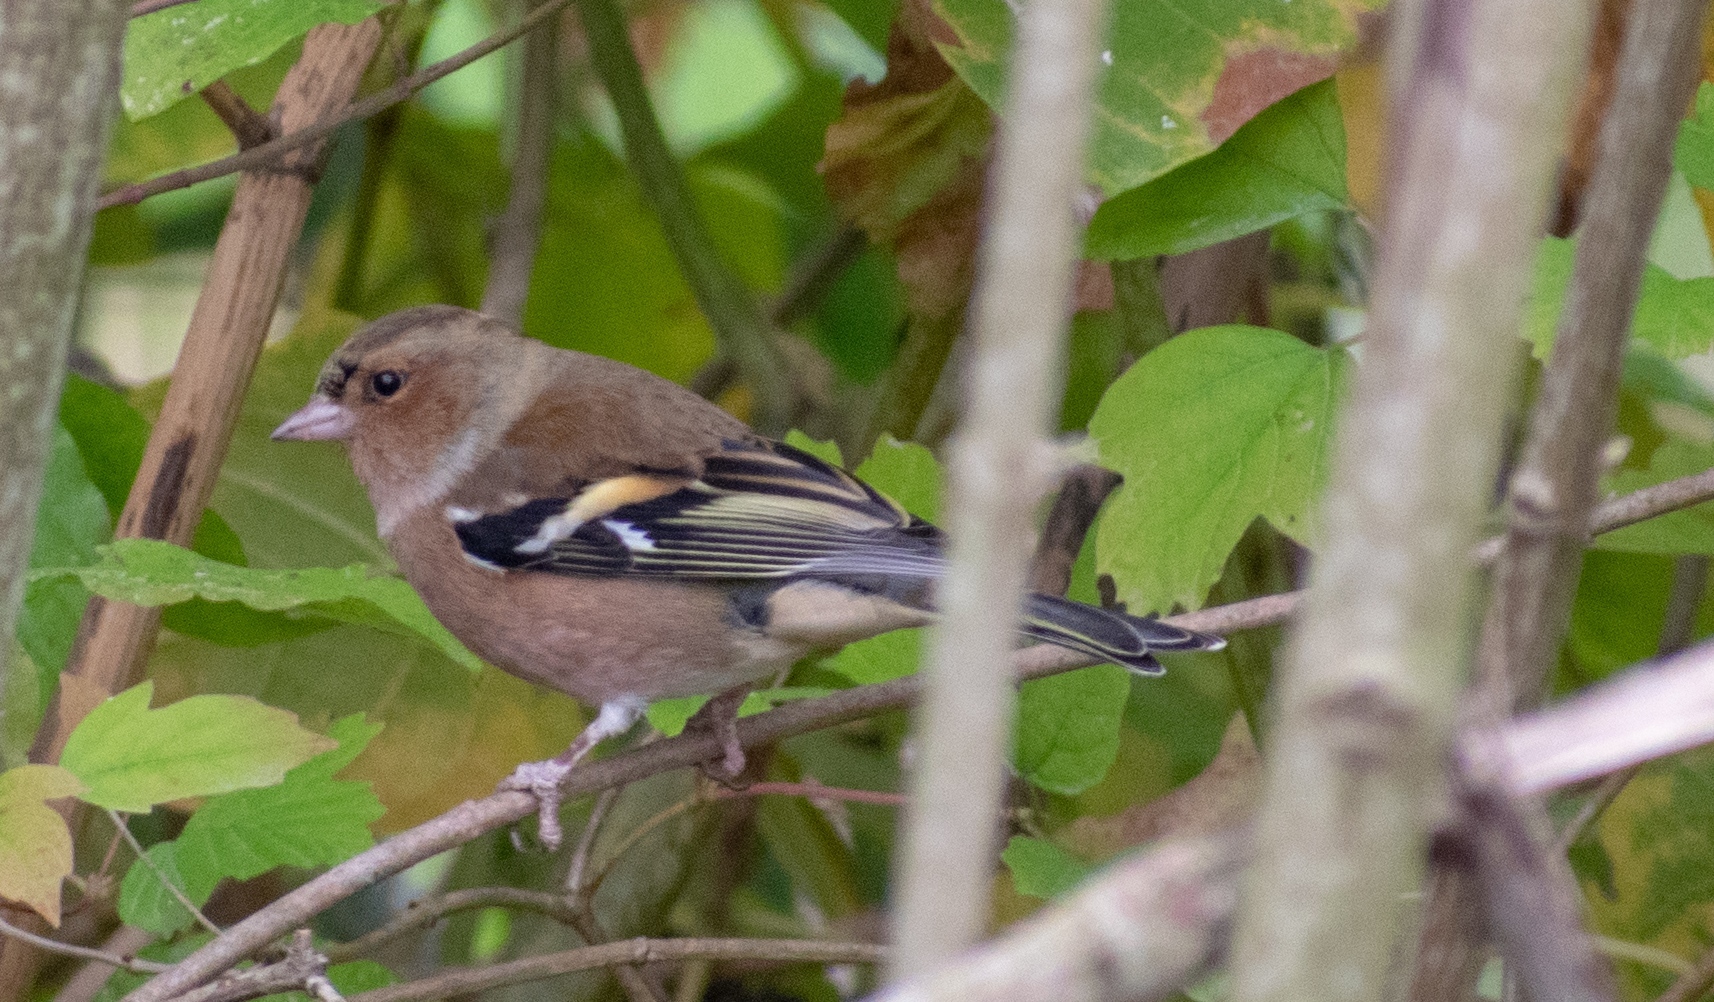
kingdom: Animalia
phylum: Chordata
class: Aves
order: Passeriformes
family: Fringillidae
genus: Fringilla
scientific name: Fringilla coelebs
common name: Common chaffinch
